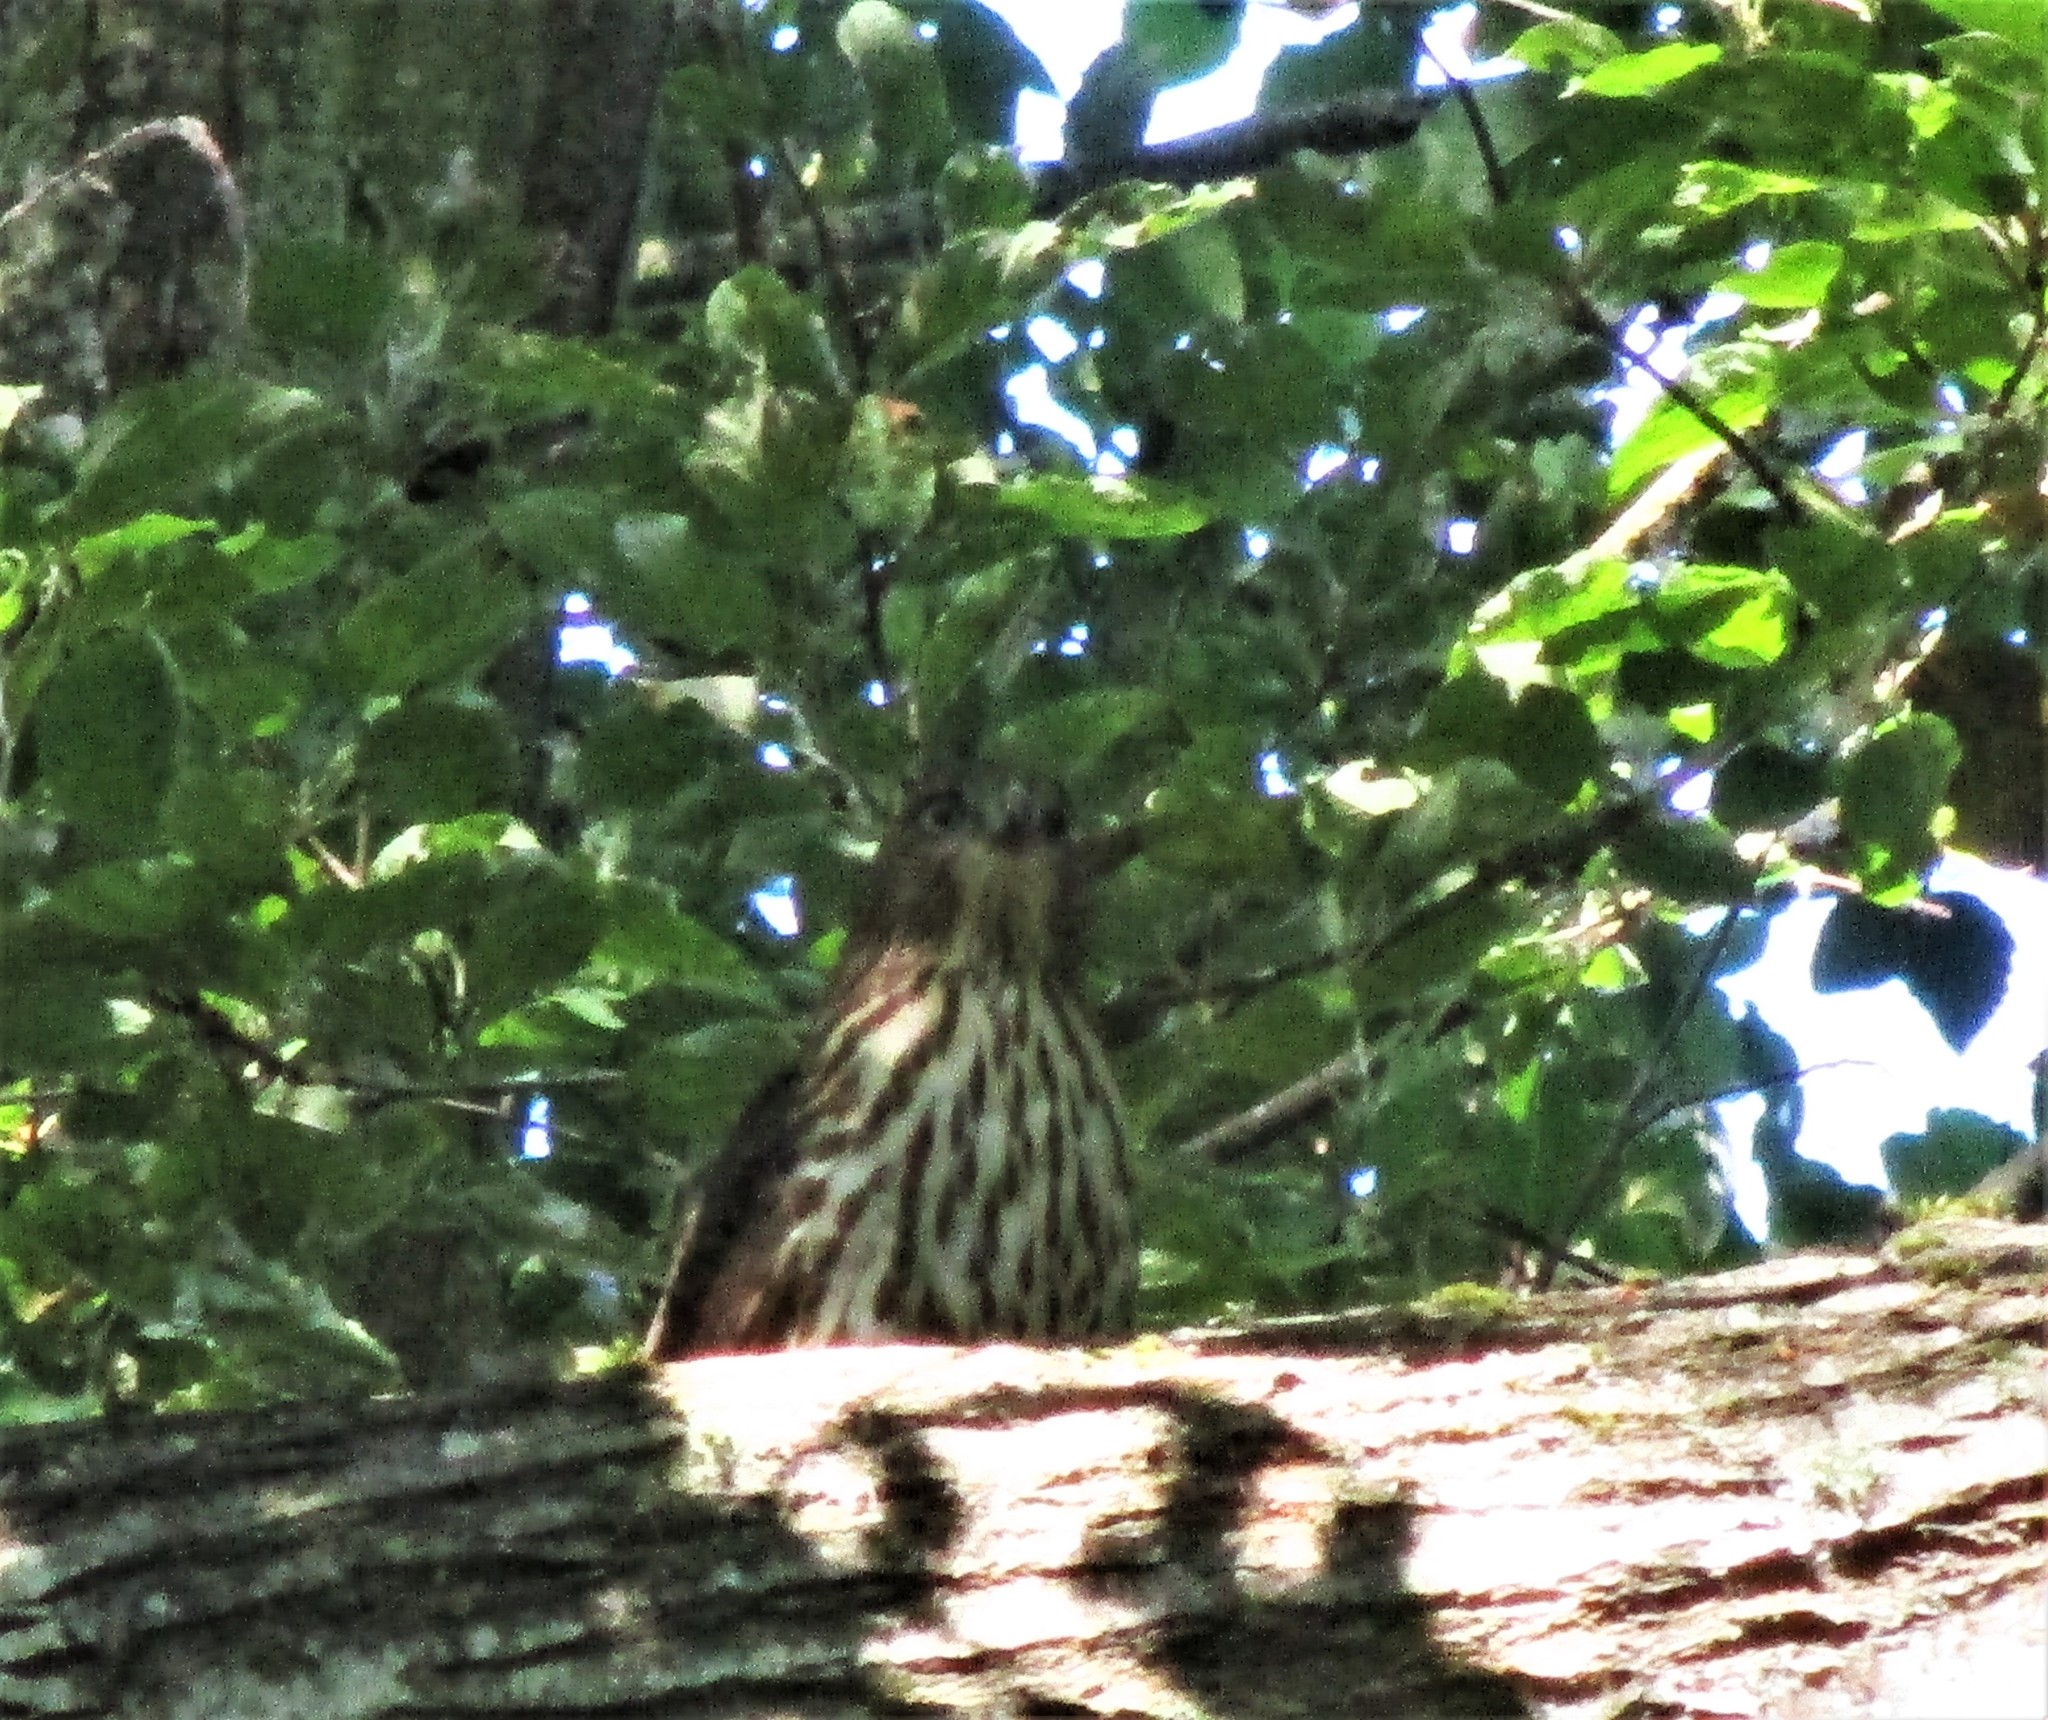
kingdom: Animalia
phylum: Chordata
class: Aves
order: Accipitriformes
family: Accipitridae
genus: Accipiter
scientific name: Accipiter cooperii
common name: Cooper's hawk
